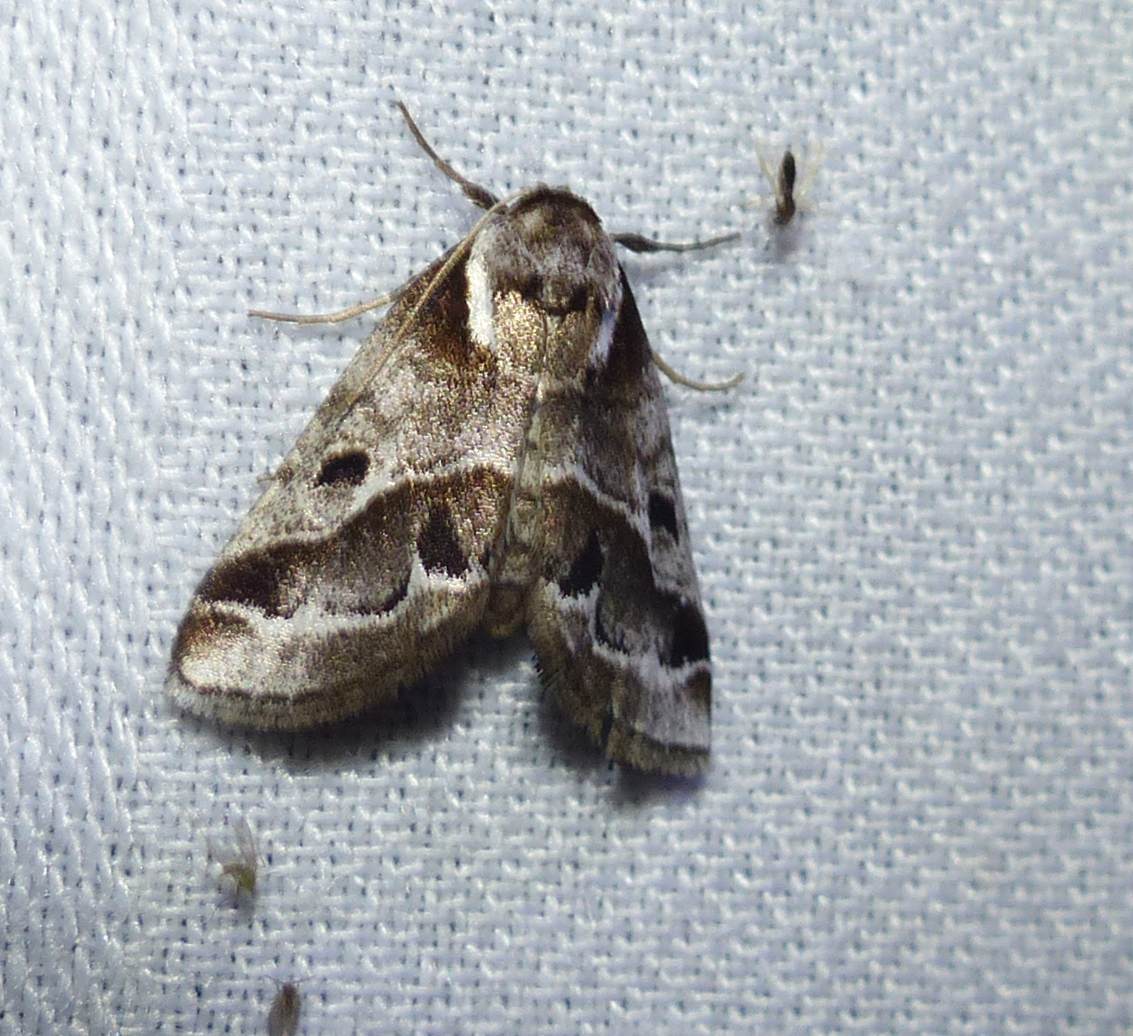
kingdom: Animalia
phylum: Arthropoda
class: Insecta
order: Lepidoptera
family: Nolidae
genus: Baileya
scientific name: Baileya doubledayi
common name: Doubleday's baileya moth
